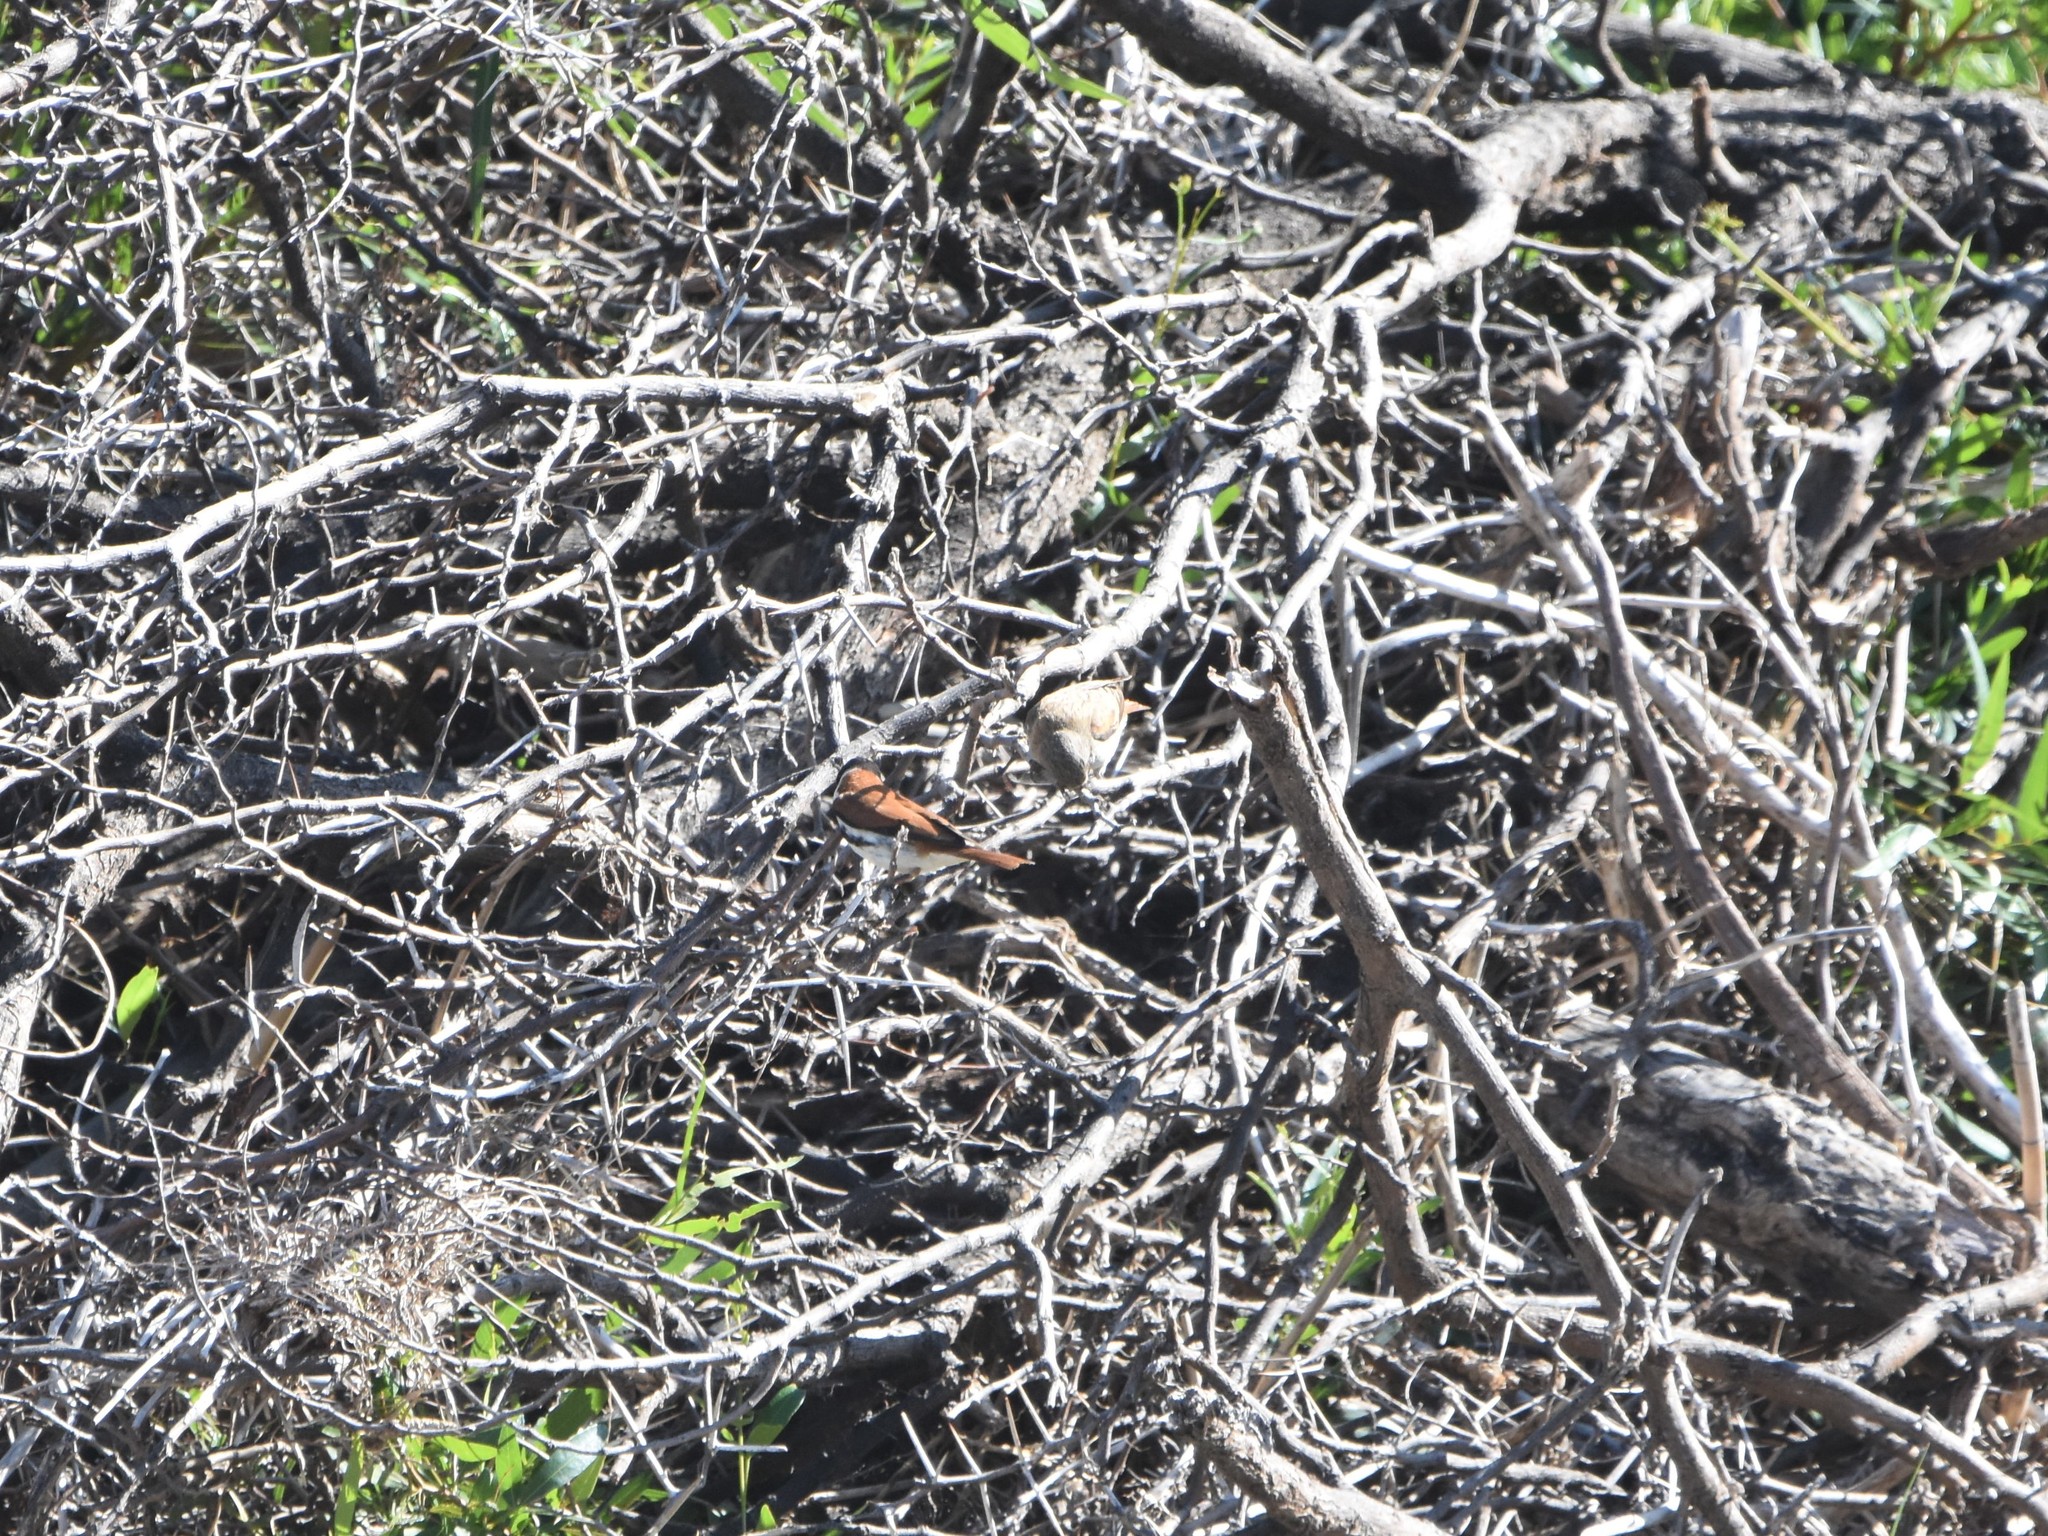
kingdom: Animalia
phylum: Chordata
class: Aves
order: Passeriformes
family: Fringillidae
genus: Serinus
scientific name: Serinus alario
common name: Black-headed canary
